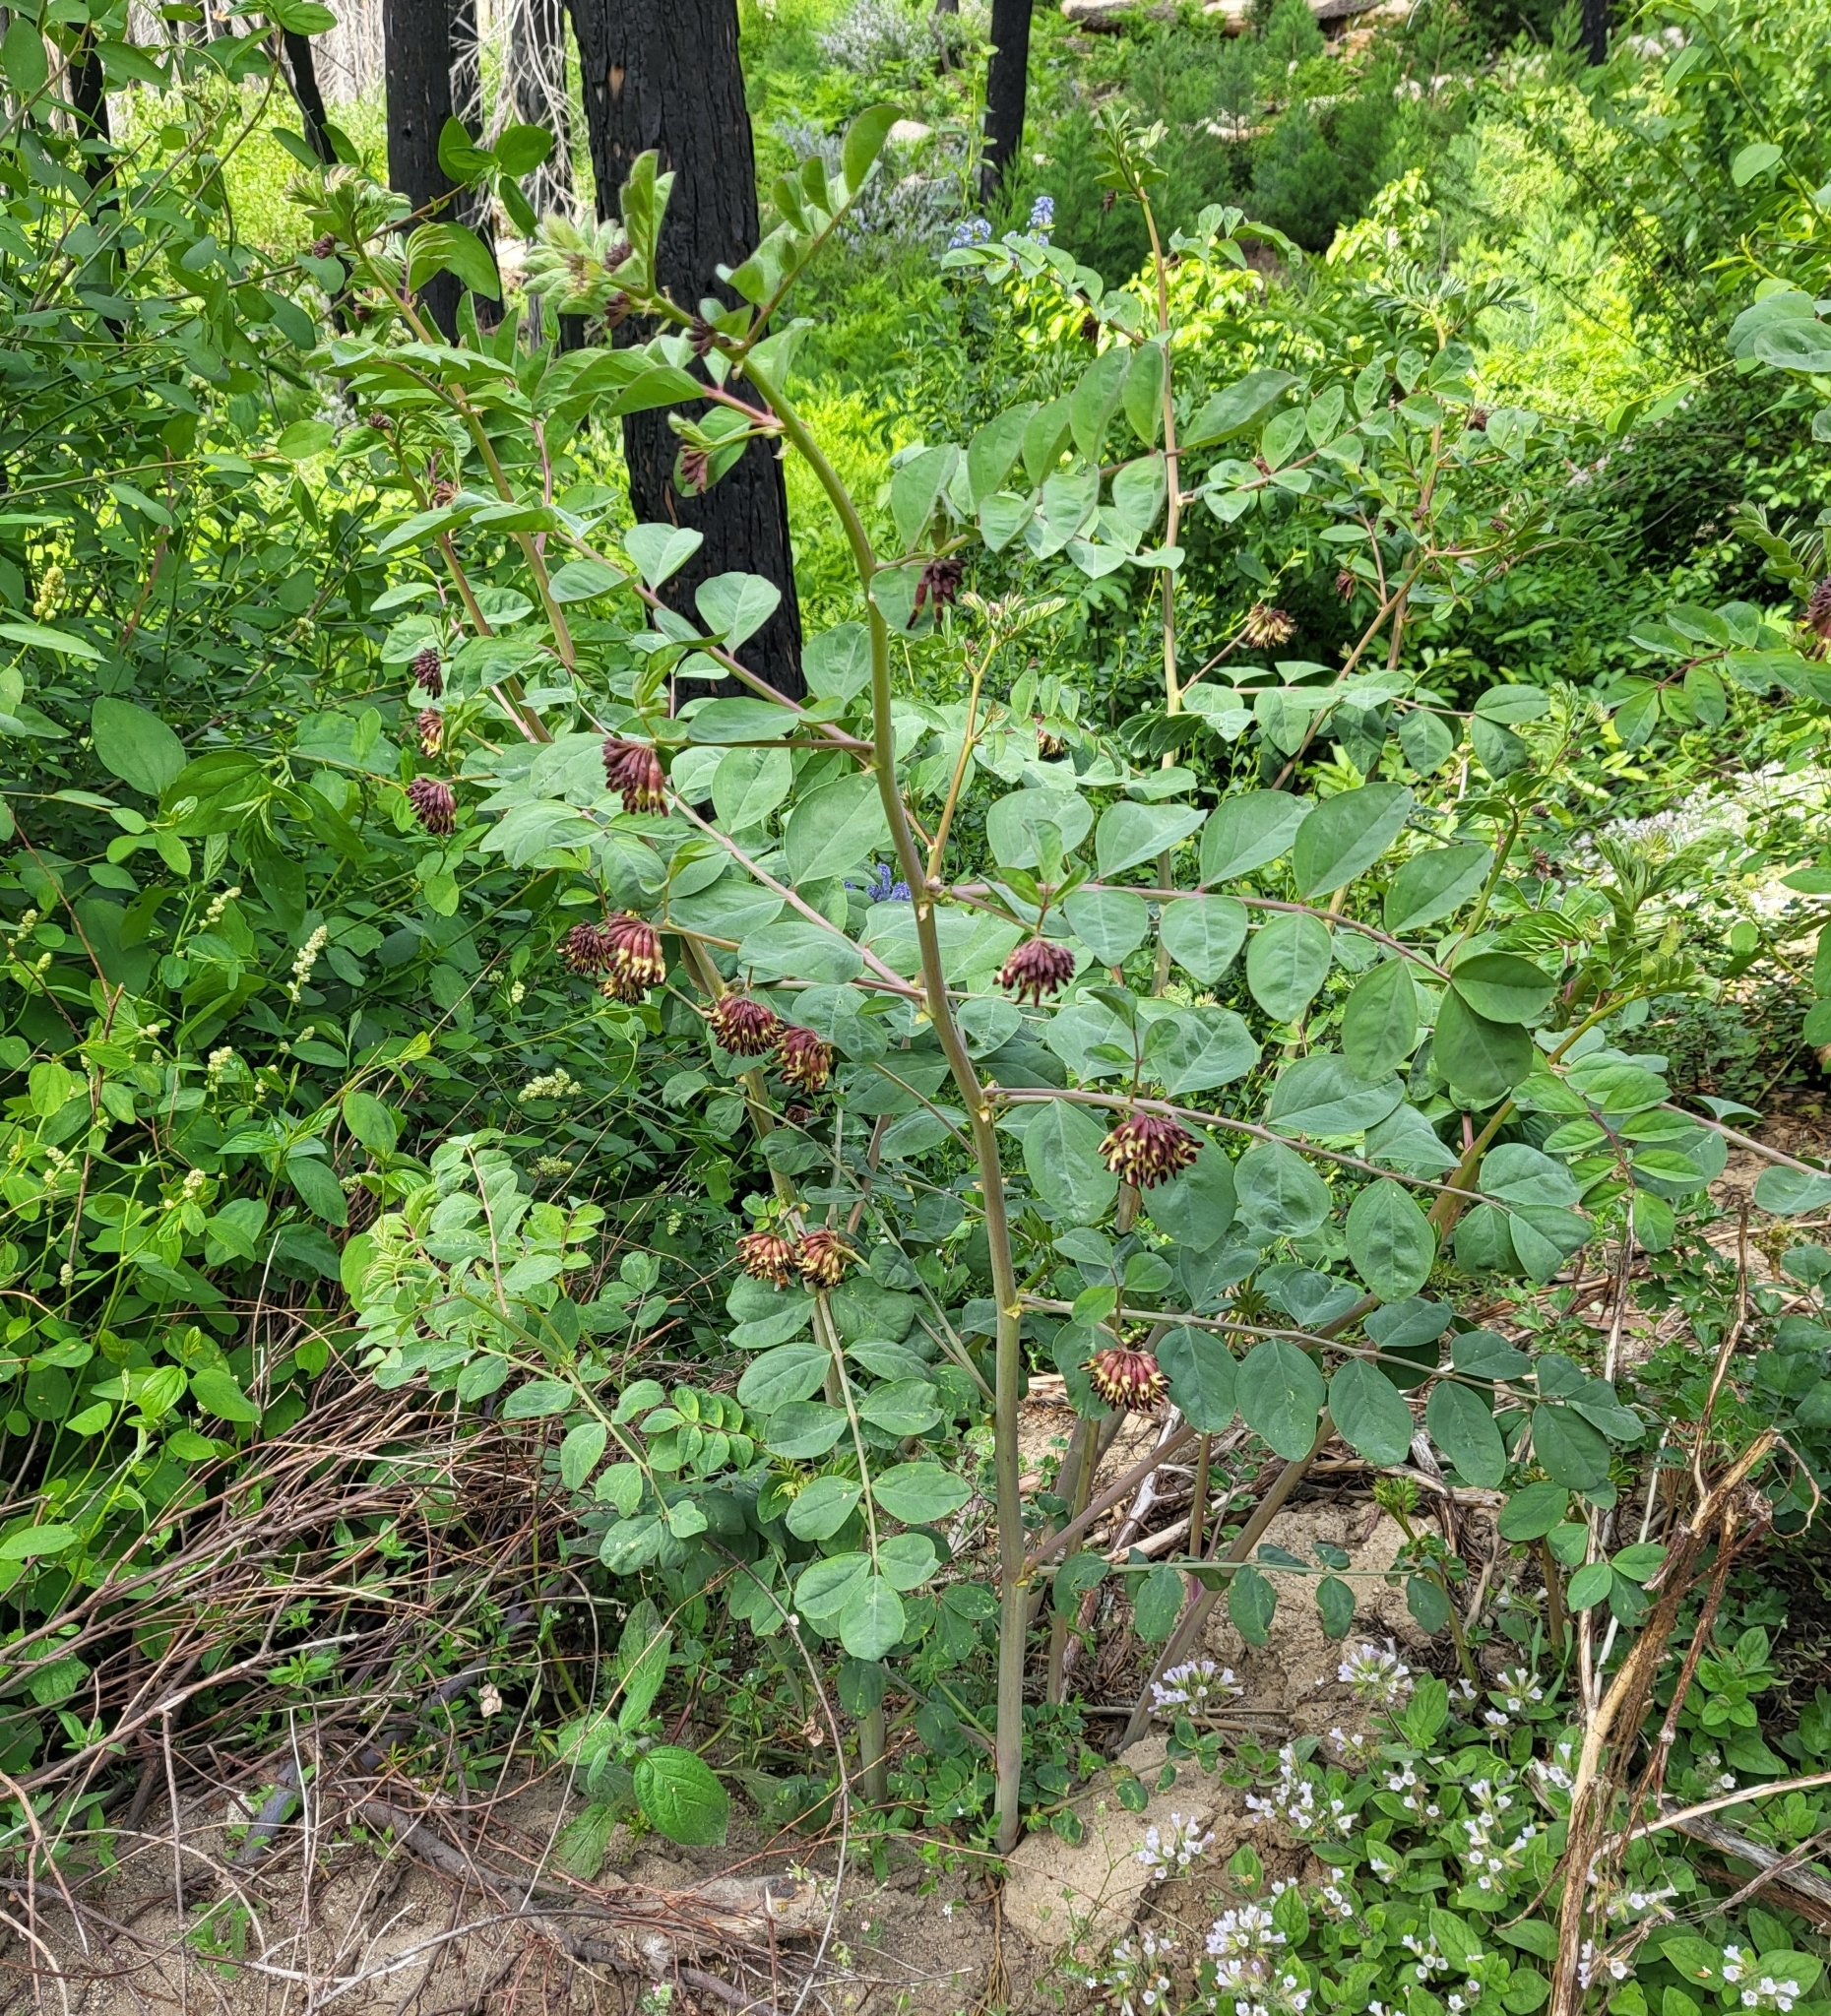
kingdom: Plantae
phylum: Tracheophyta
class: Magnoliopsida
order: Fabales
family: Fabaceae
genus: Hosackia
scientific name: Hosackia crassifolia
